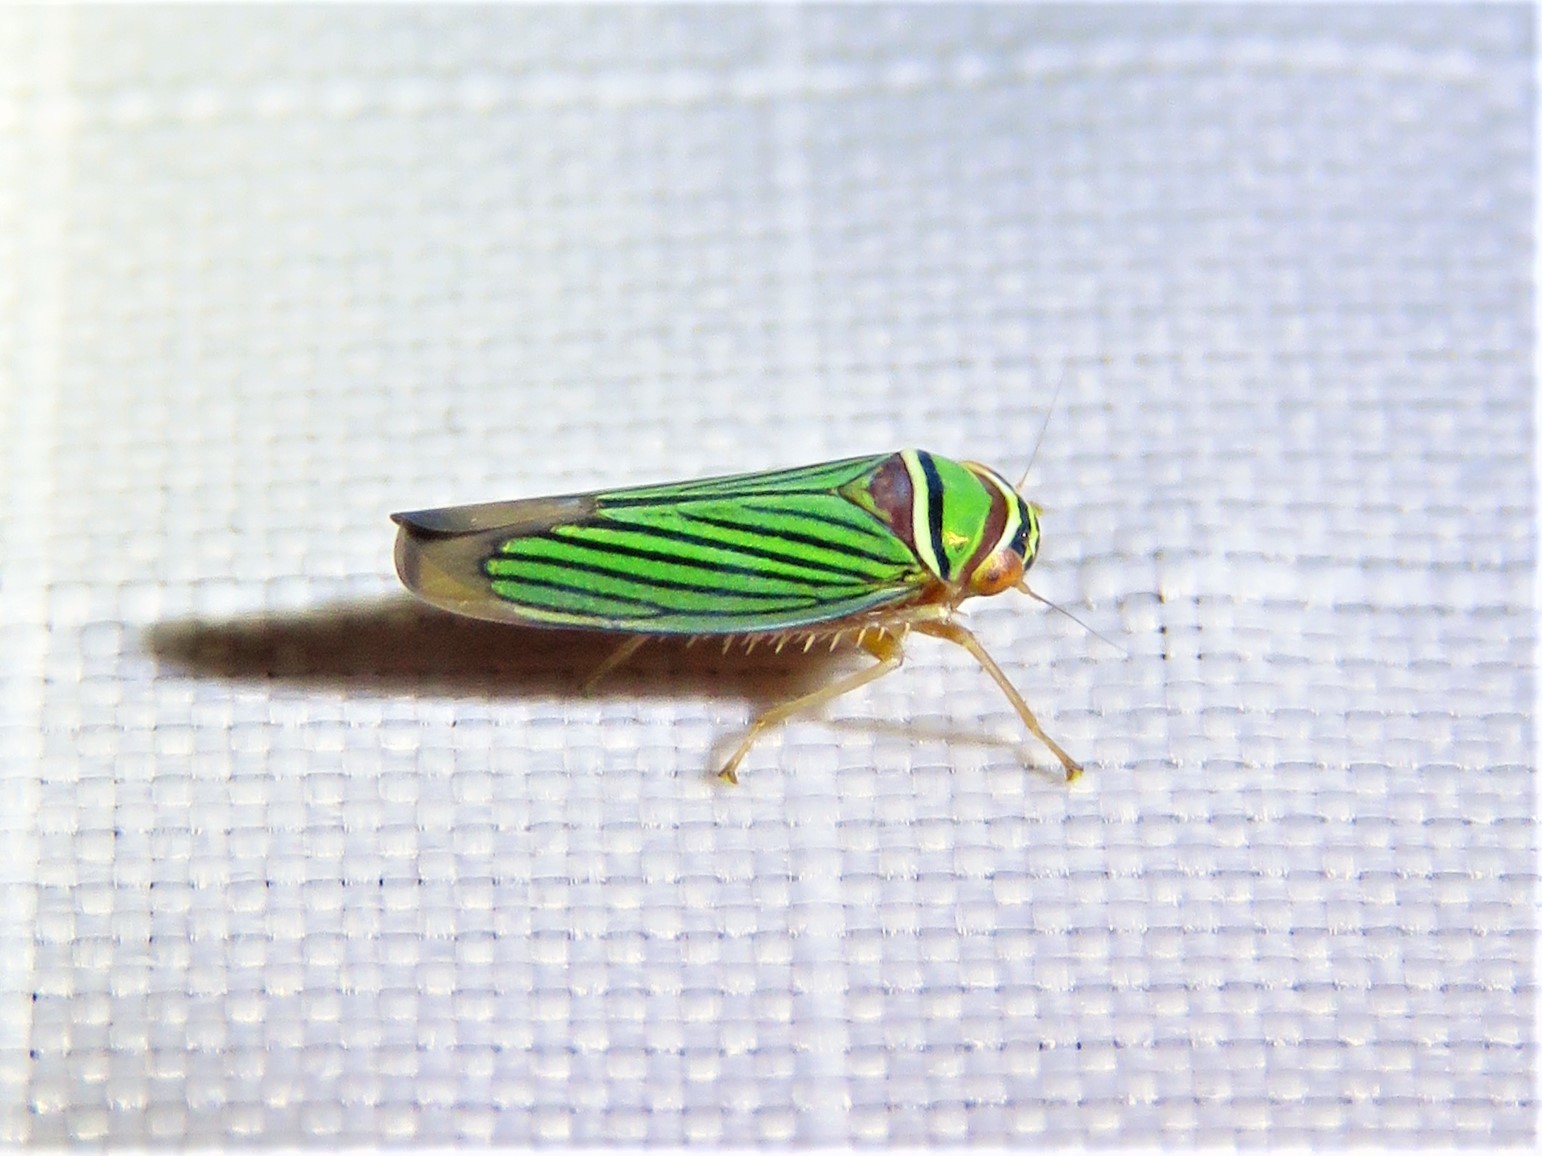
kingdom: Animalia
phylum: Arthropoda
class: Insecta
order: Hemiptera
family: Cicadellidae
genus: Tylozygus
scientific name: Tylozygus fuscolineellus
